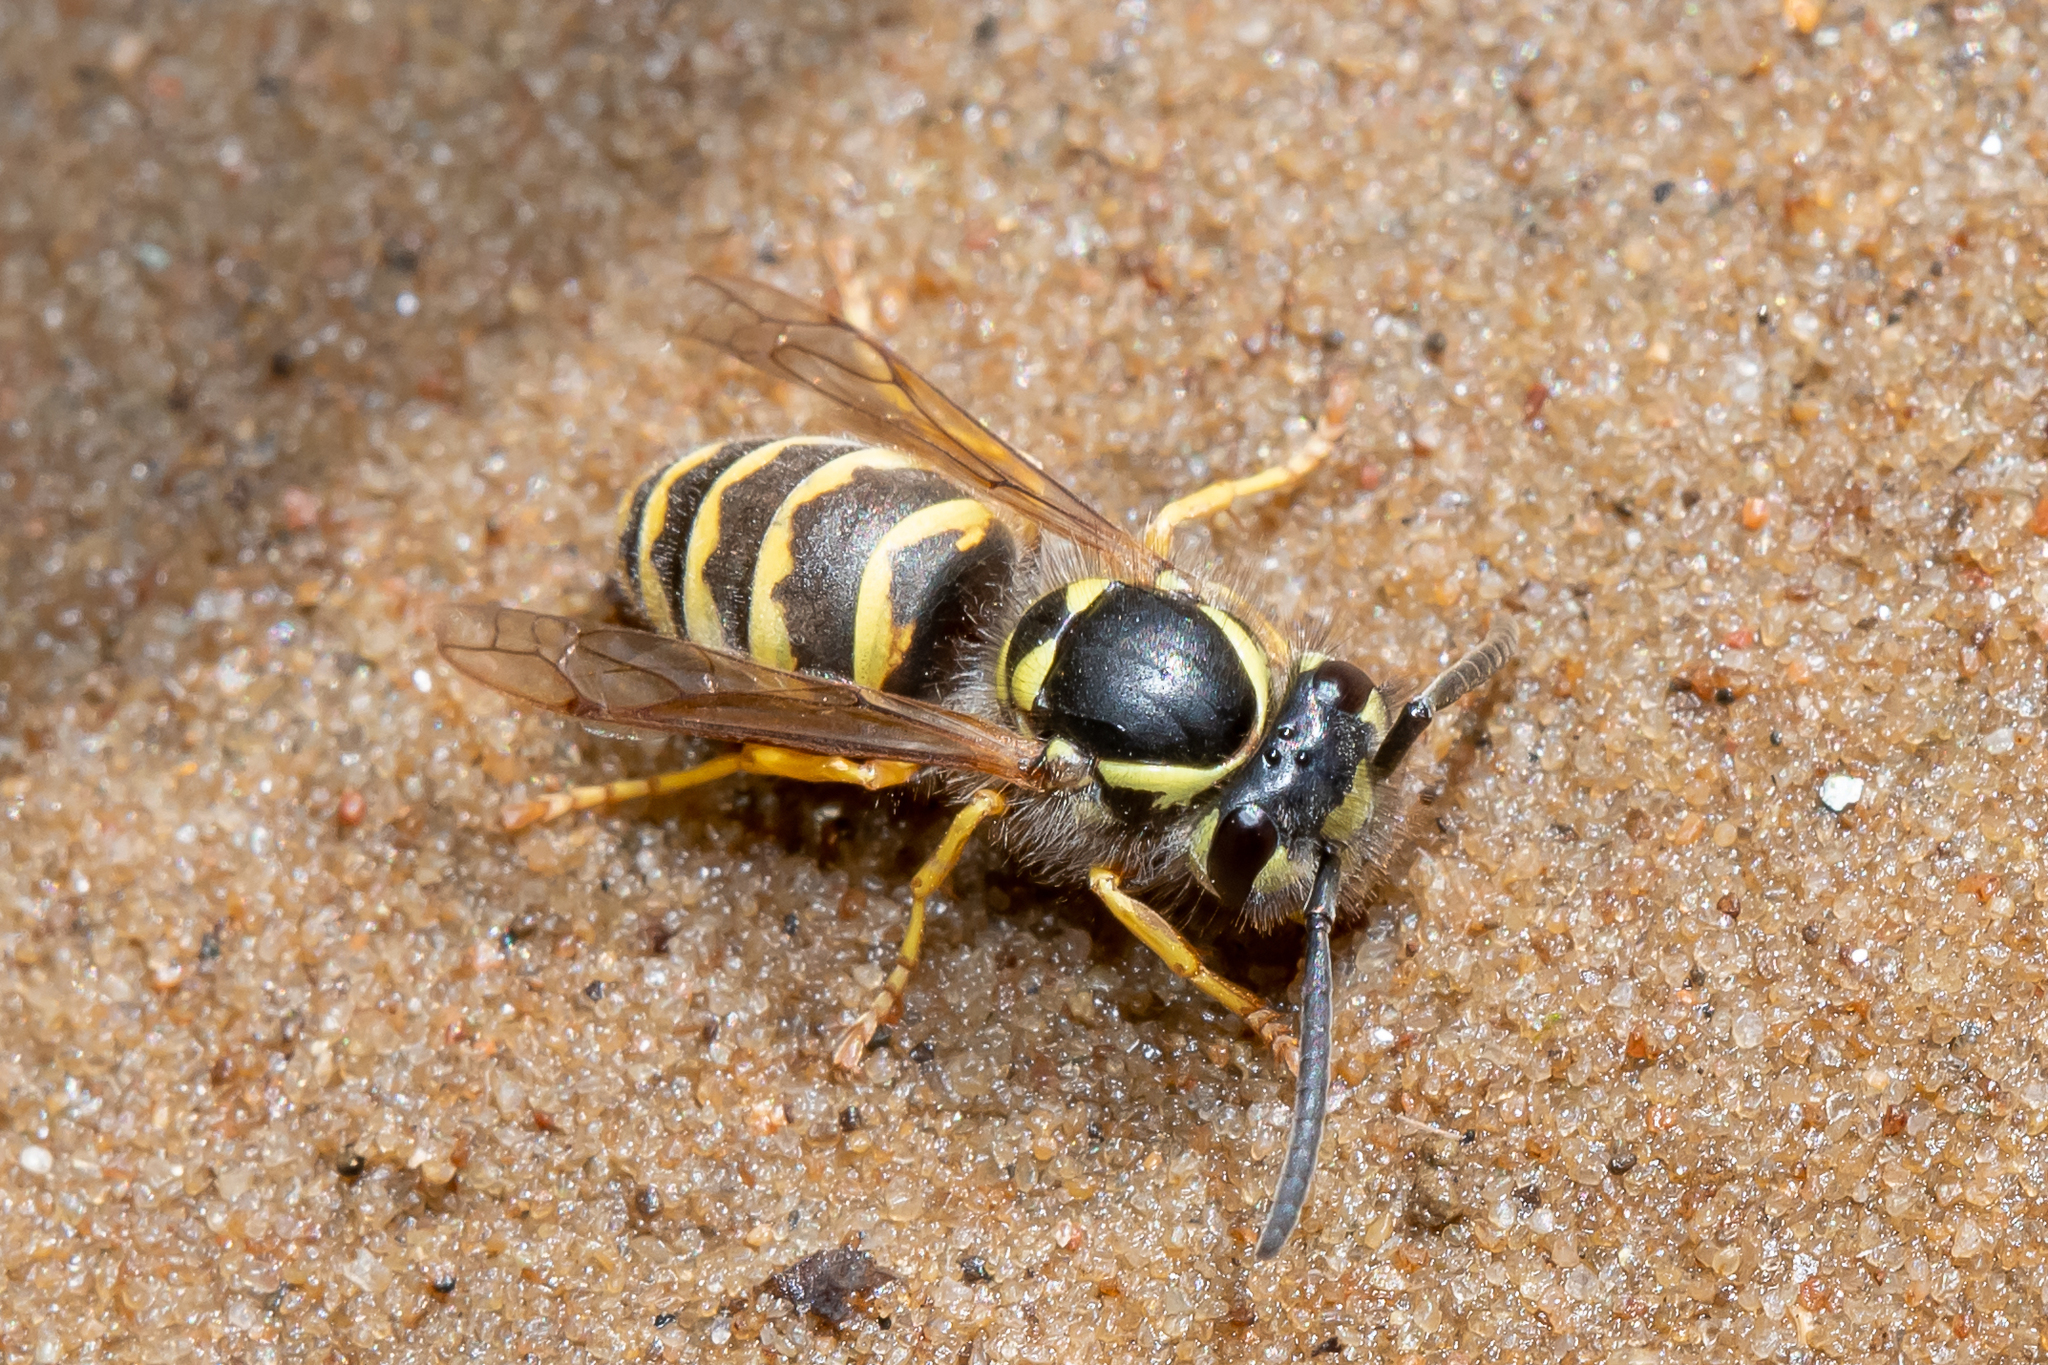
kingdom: Animalia
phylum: Arthropoda
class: Insecta
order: Hymenoptera
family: Vespidae
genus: Vespula
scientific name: Vespula vulgaris
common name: Common wasp
